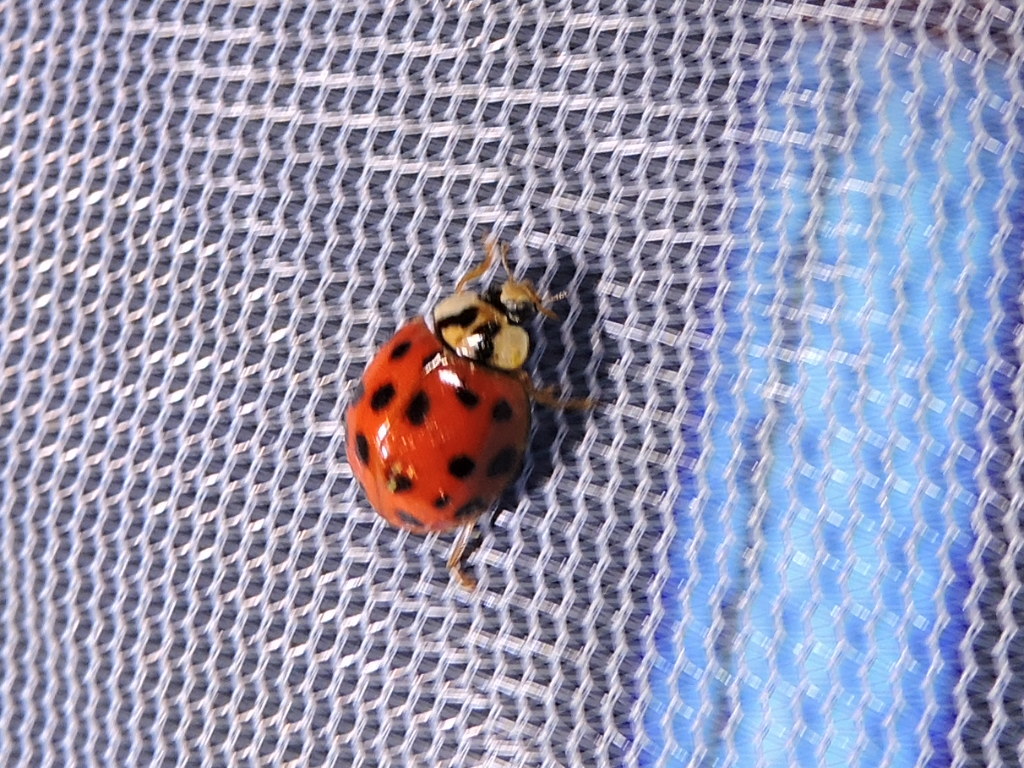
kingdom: Animalia
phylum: Arthropoda
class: Insecta
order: Coleoptera
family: Coccinellidae
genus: Harmonia
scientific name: Harmonia axyridis
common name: Harlequin ladybird
